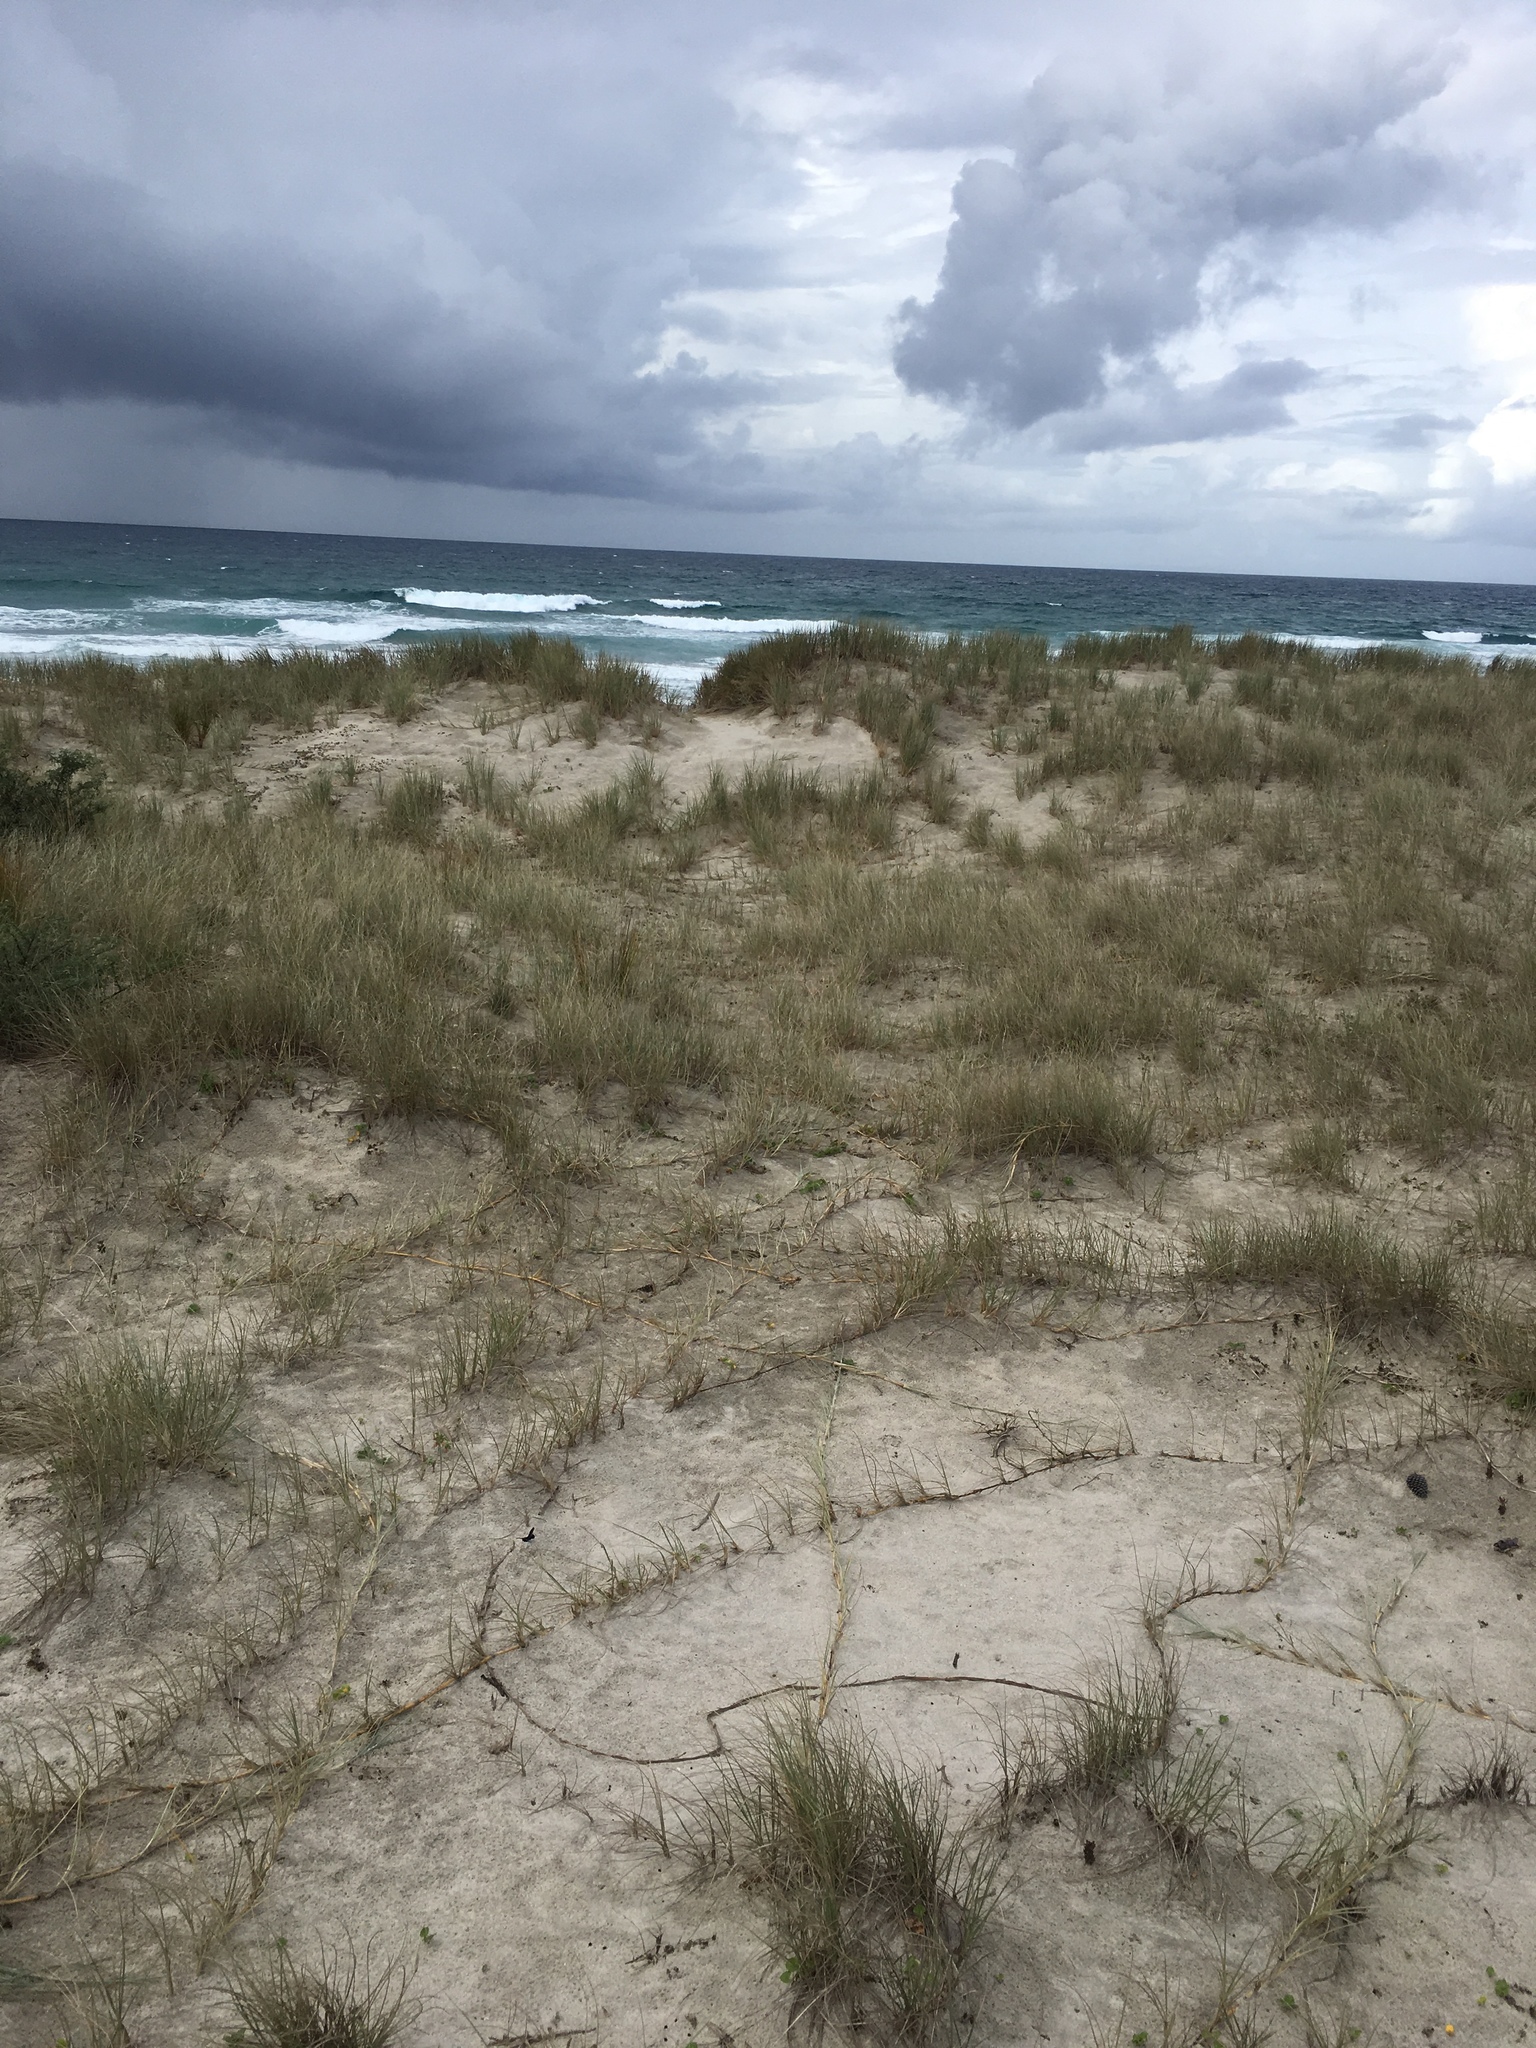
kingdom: Plantae
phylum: Tracheophyta
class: Liliopsida
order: Poales
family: Poaceae
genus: Spinifex
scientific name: Spinifex sericeus
